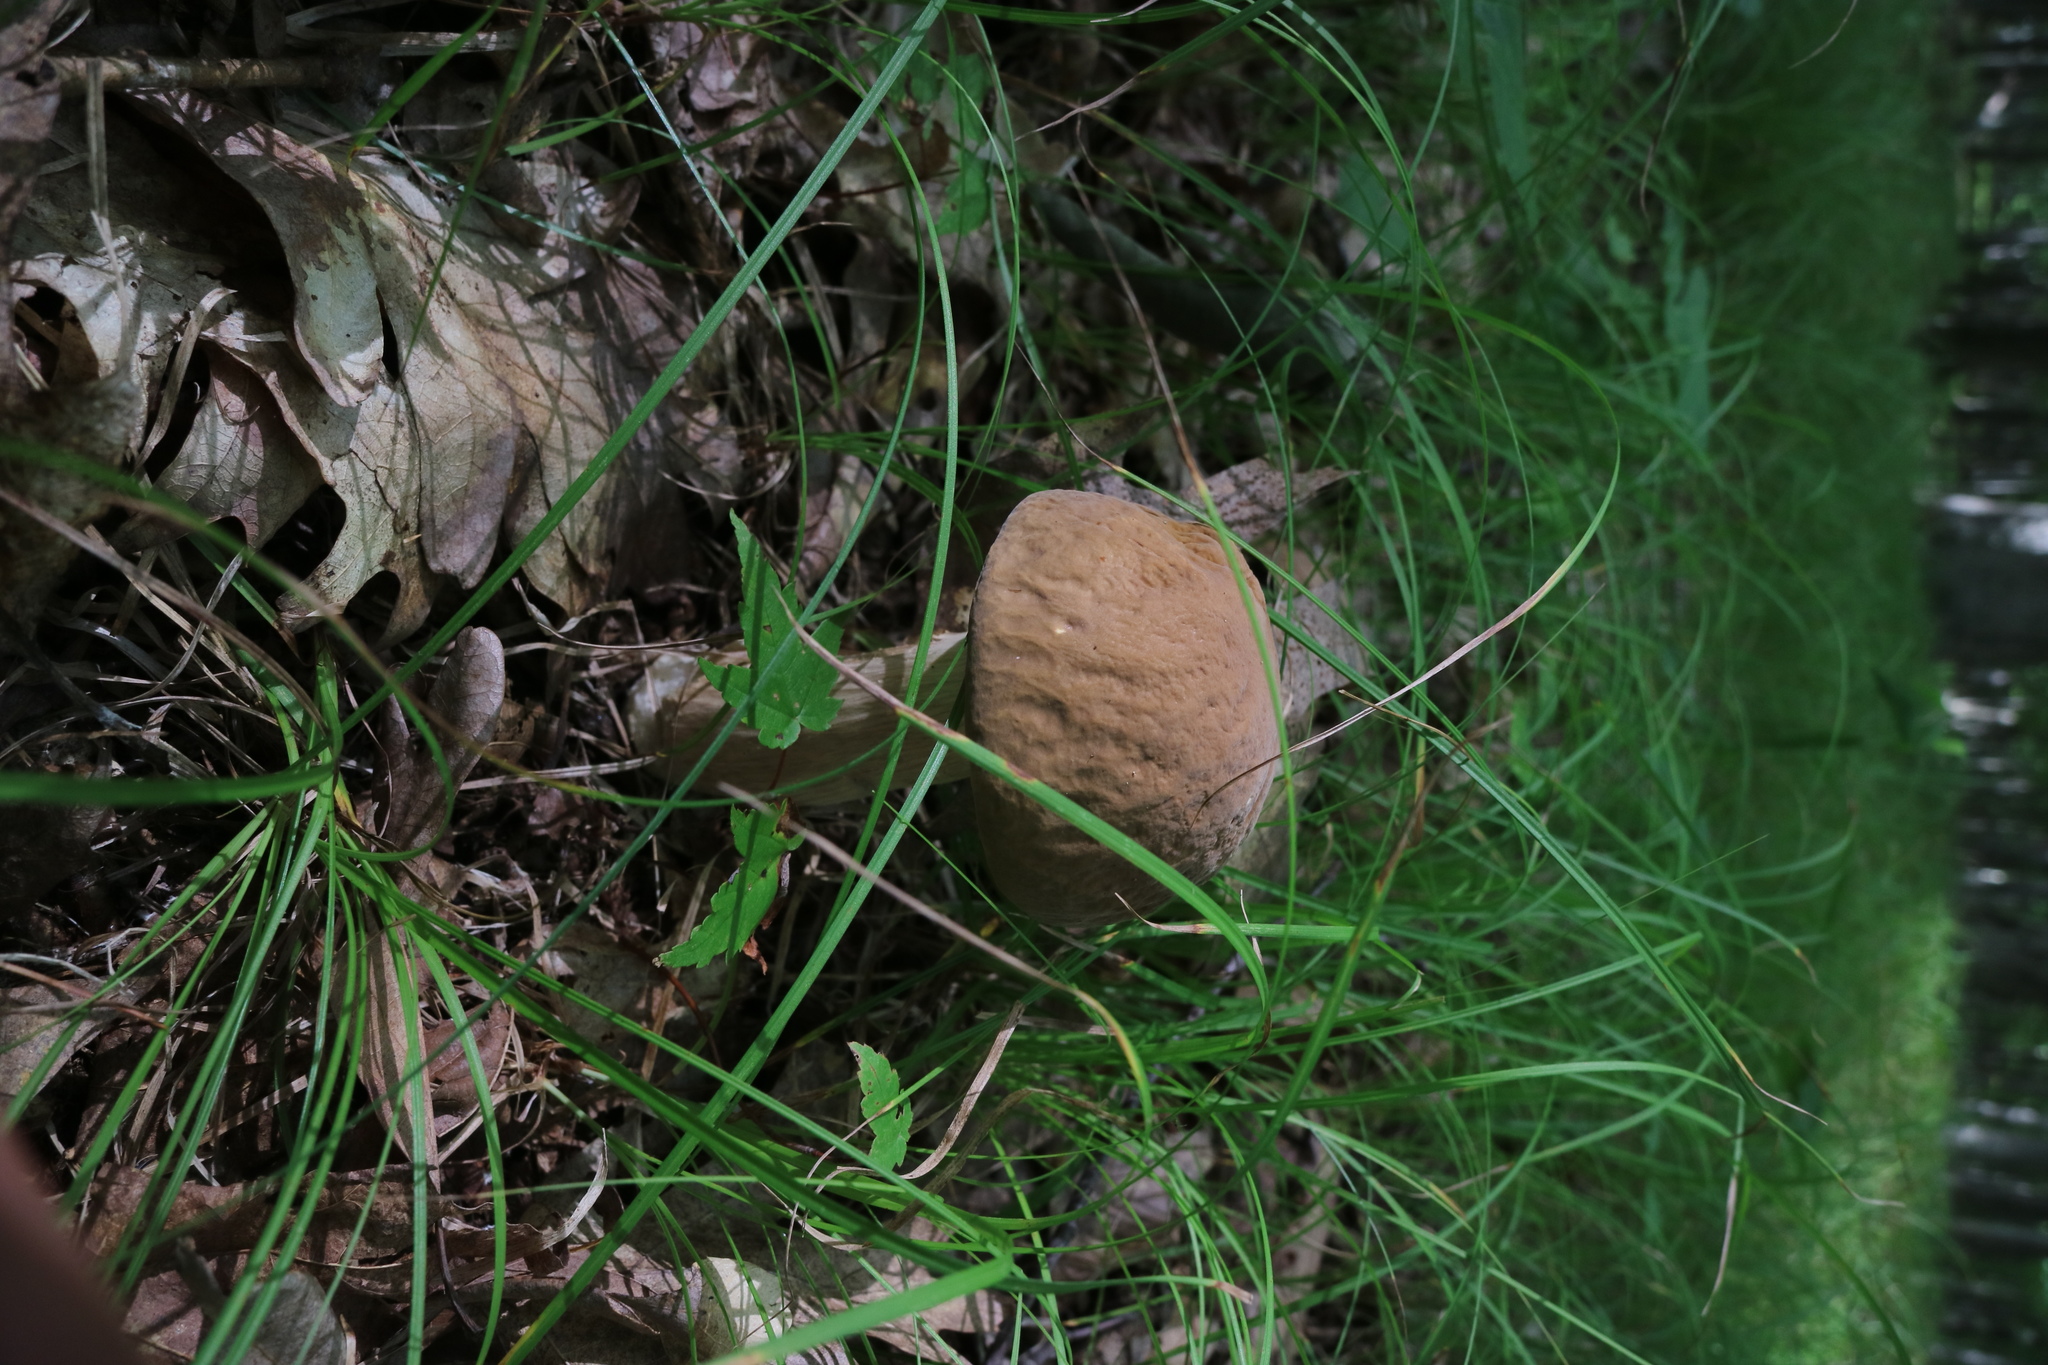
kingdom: Fungi
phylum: Basidiomycota
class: Agaricomycetes
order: Boletales
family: Boletaceae
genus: Boletus
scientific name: Boletus nobilis
